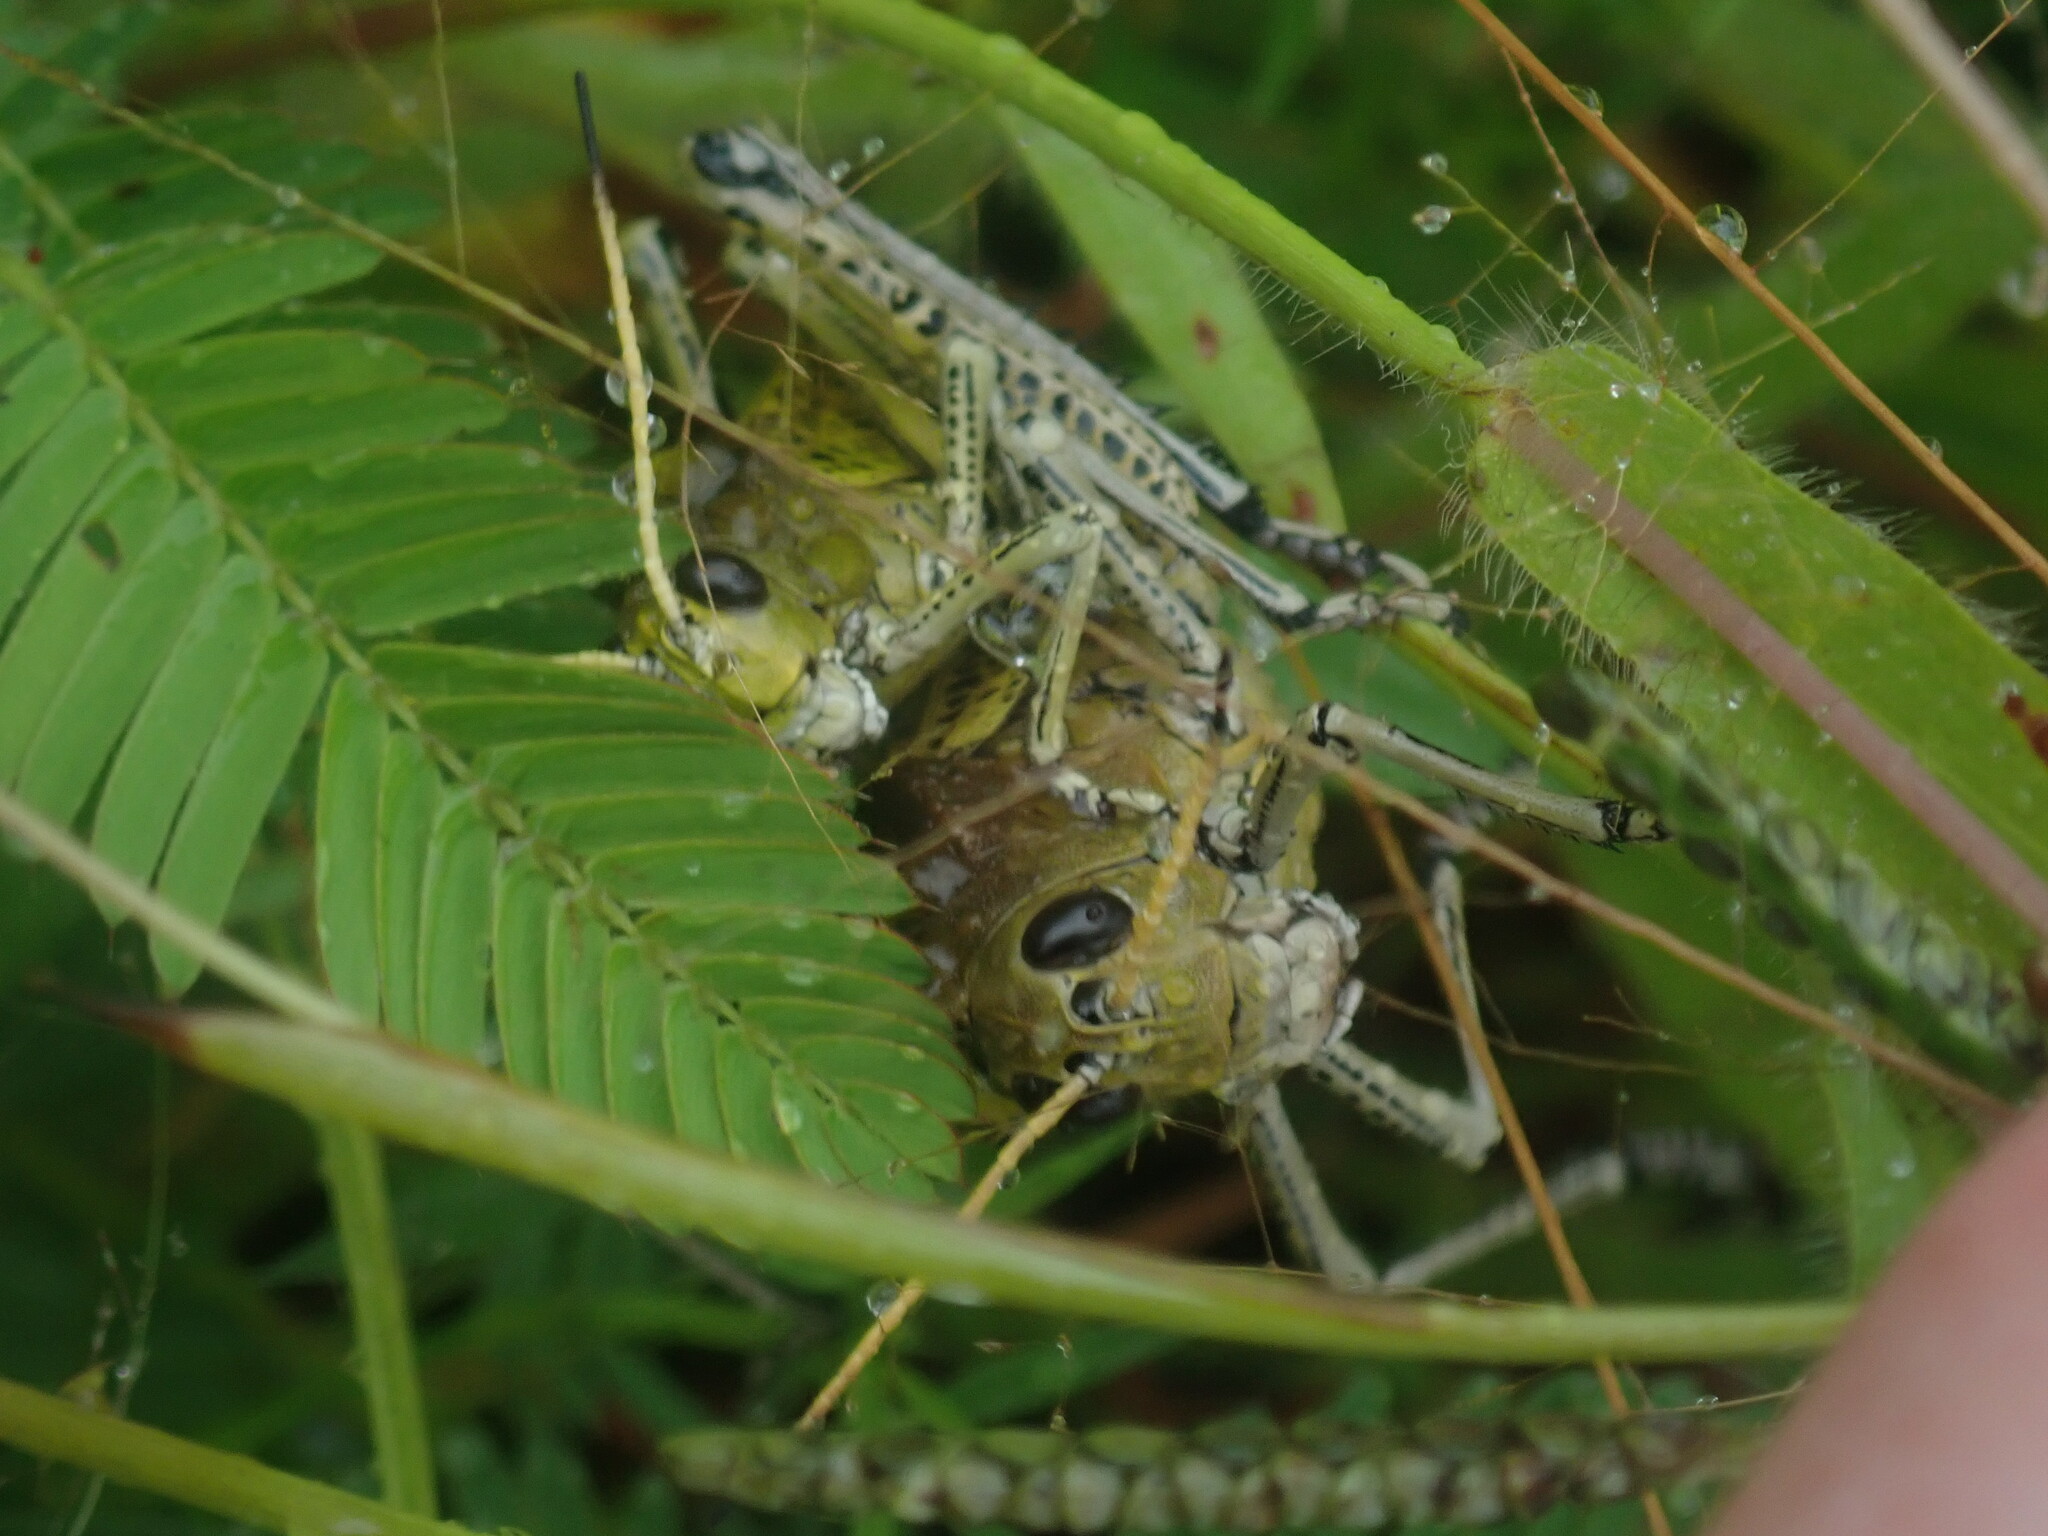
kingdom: Animalia
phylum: Arthropoda
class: Insecta
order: Orthoptera
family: Romaleidae
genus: Romalea
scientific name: Romalea
